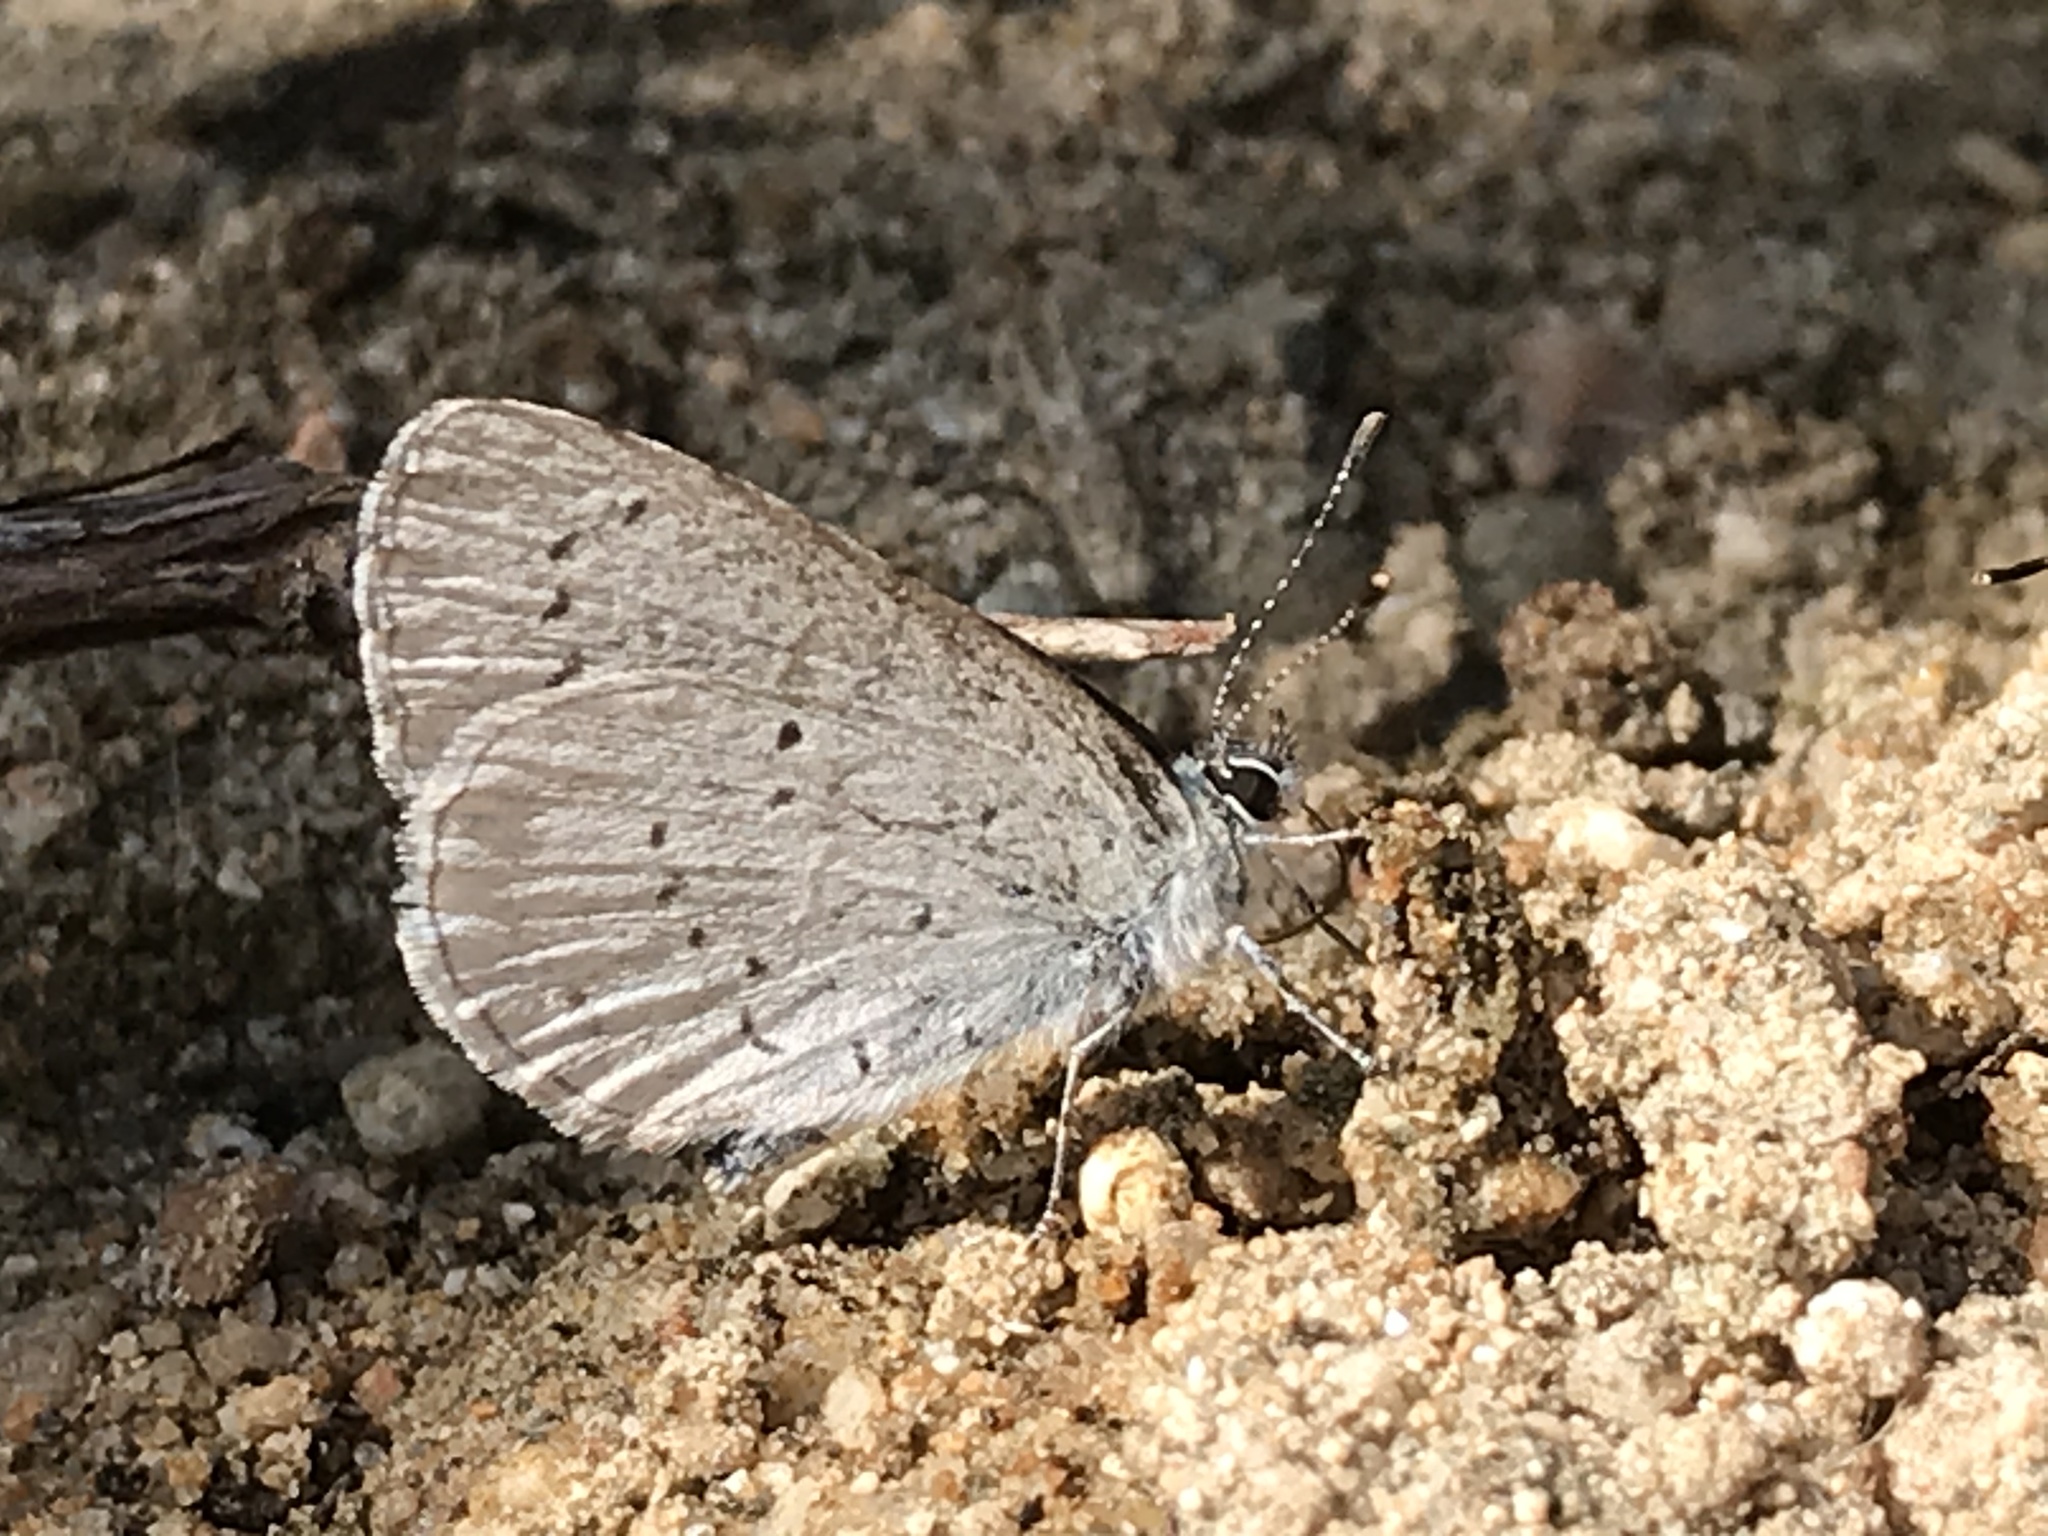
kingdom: Animalia
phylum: Arthropoda
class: Insecta
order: Lepidoptera
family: Lycaenidae
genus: Celastrina
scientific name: Celastrina ladon
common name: Spring azure
